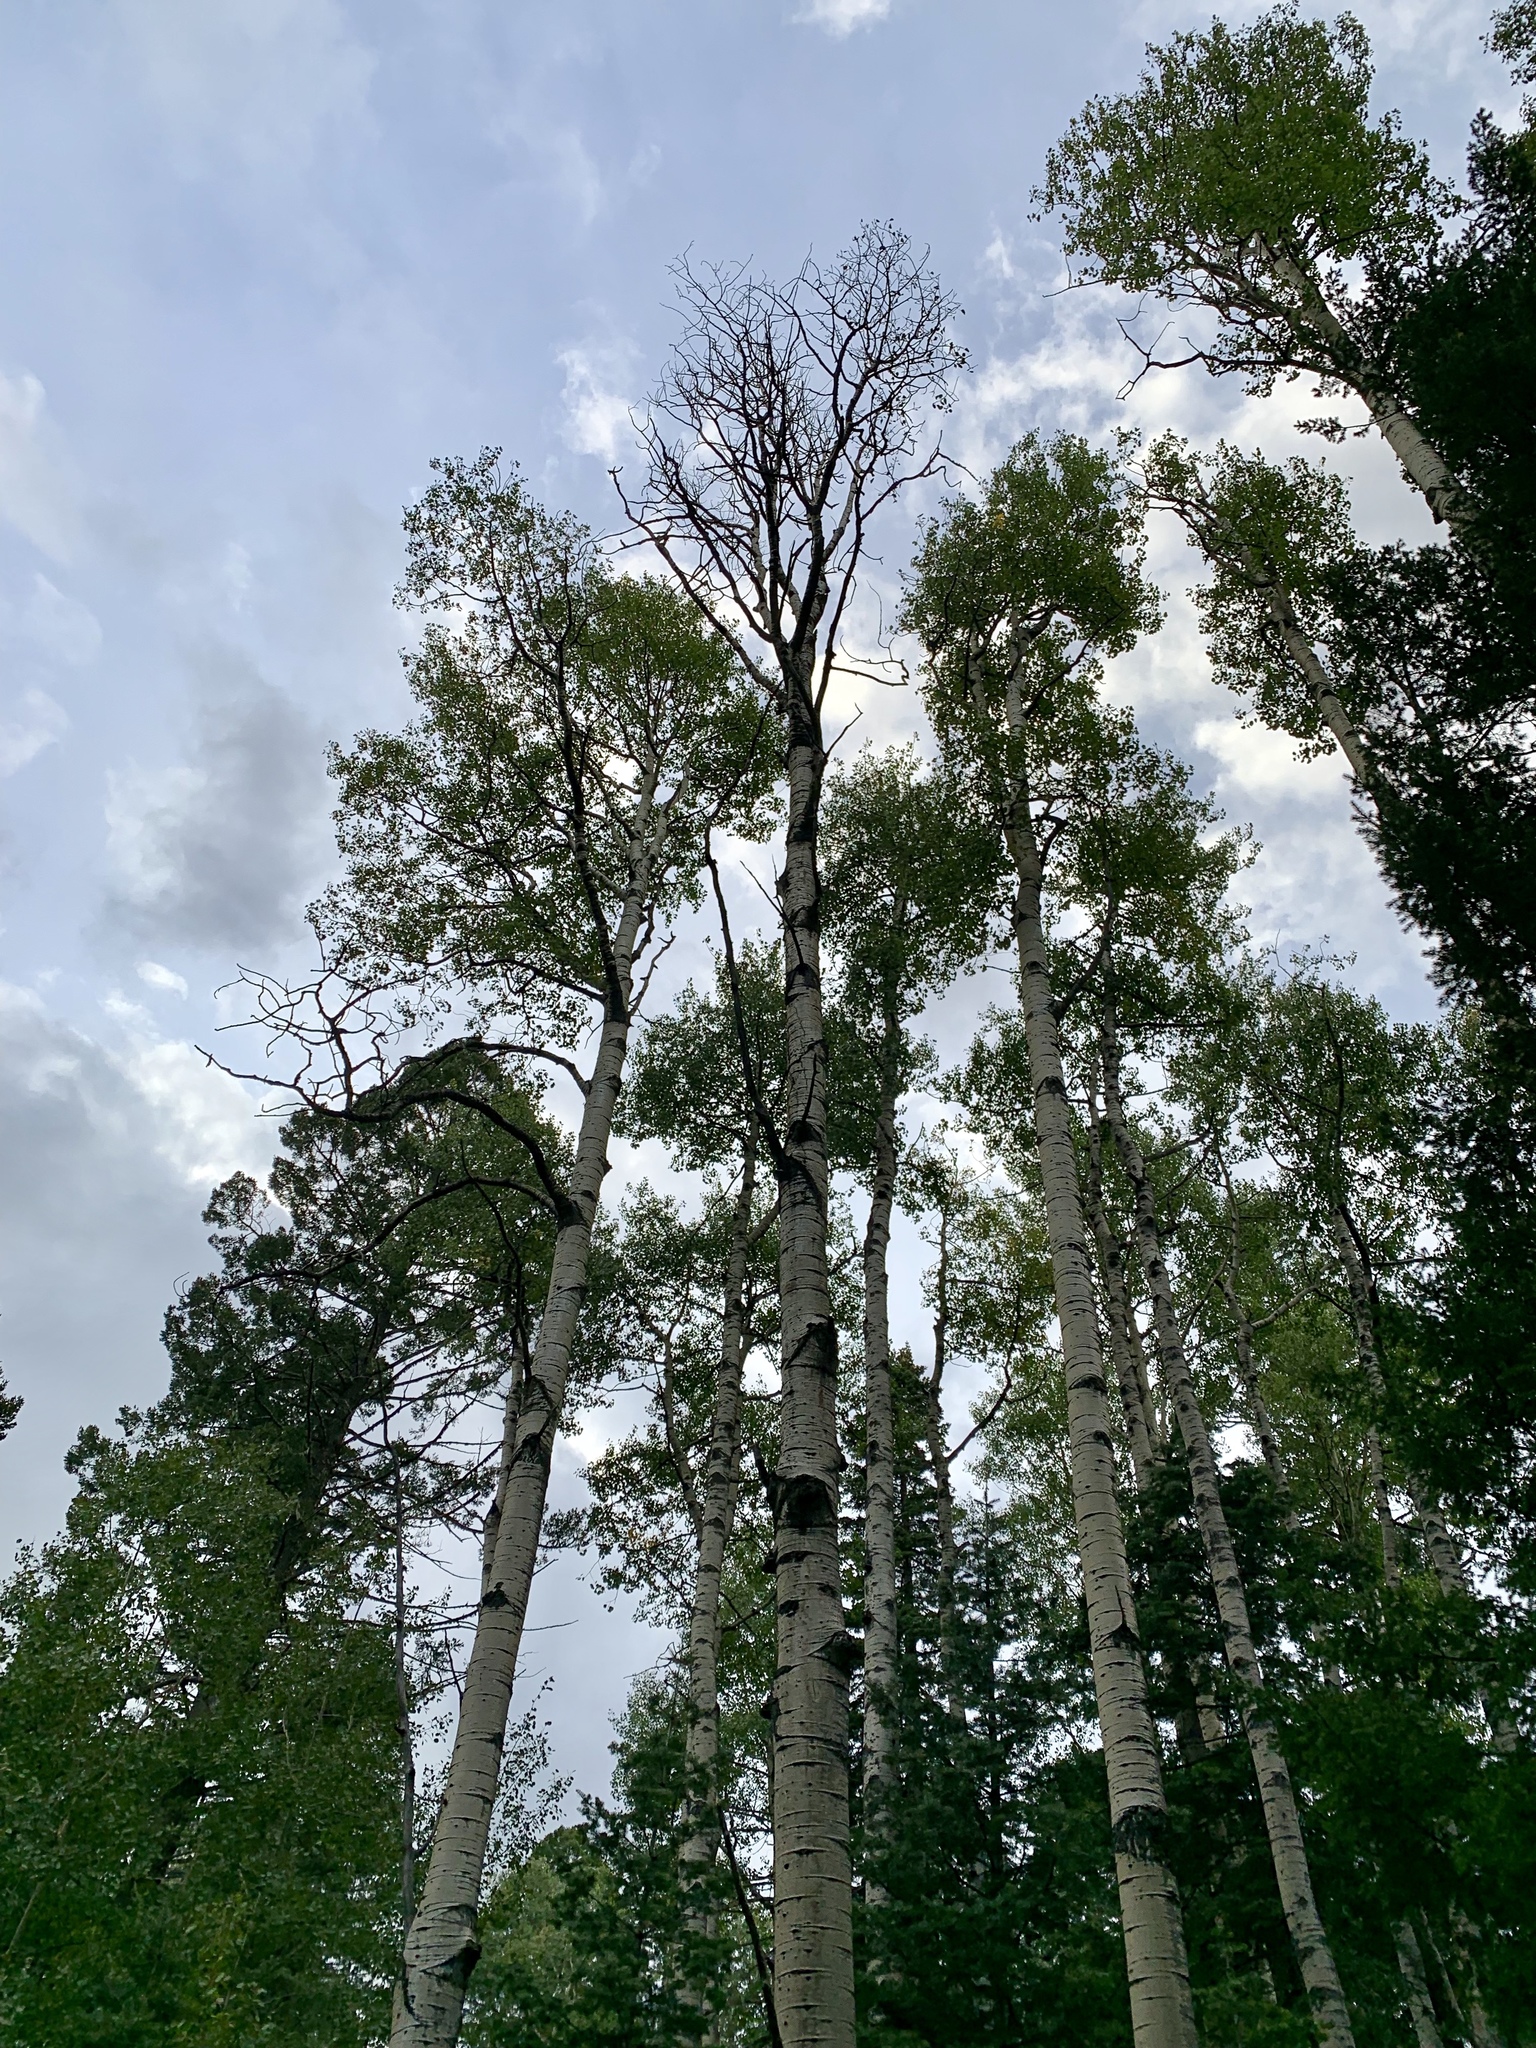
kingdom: Plantae
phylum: Tracheophyta
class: Magnoliopsida
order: Malpighiales
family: Salicaceae
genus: Populus
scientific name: Populus tremuloides
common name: Quaking aspen
